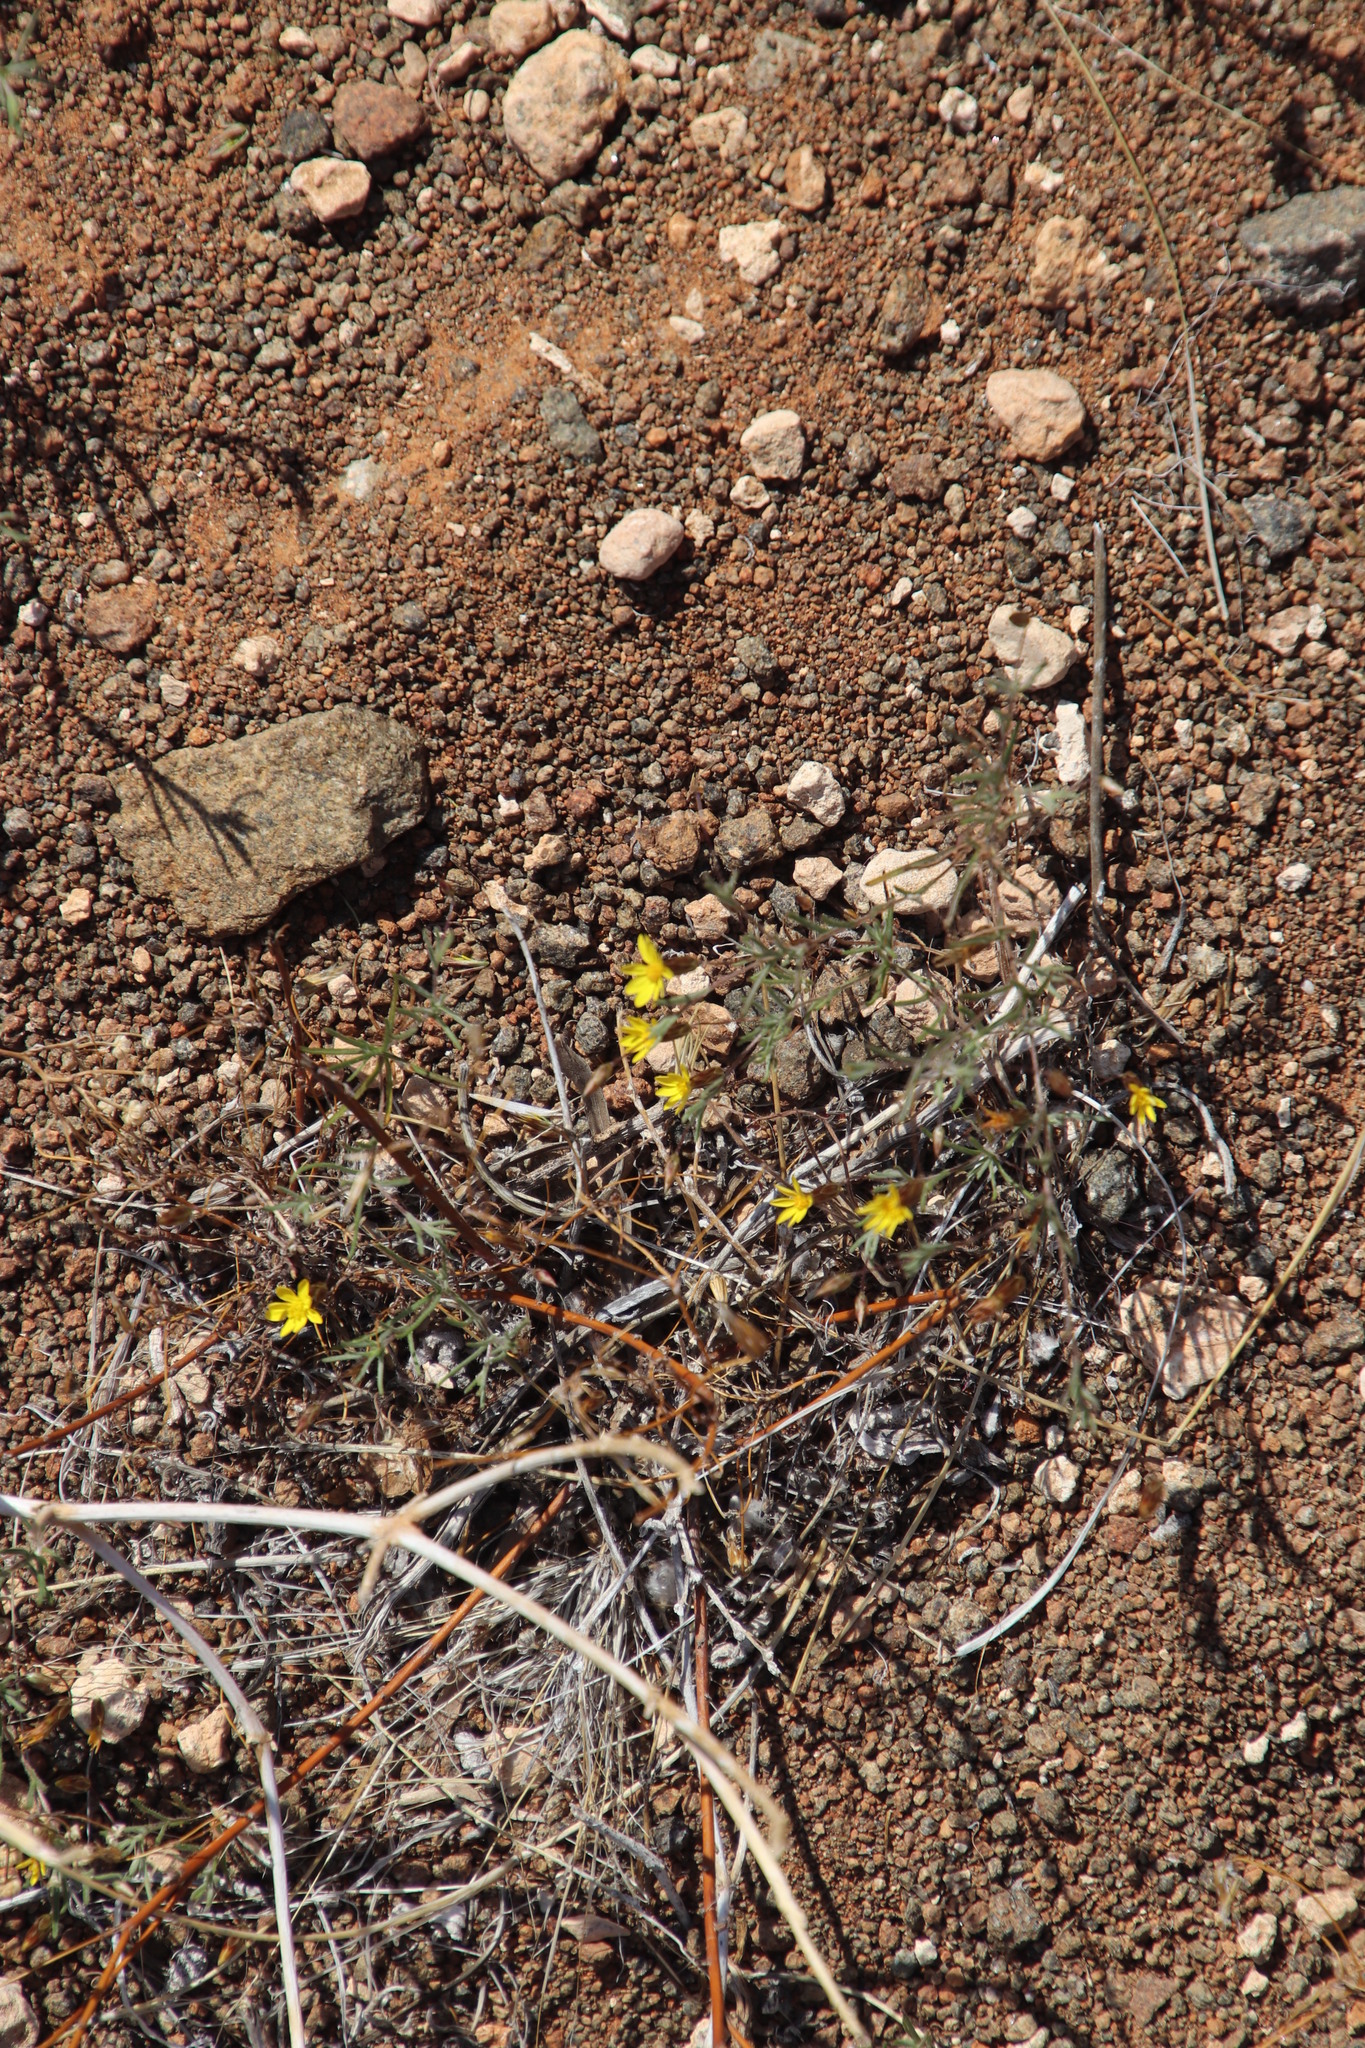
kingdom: Plantae
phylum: Tracheophyta
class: Magnoliopsida
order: Asterales
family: Asteraceae
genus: Leysera
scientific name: Leysera tenella
